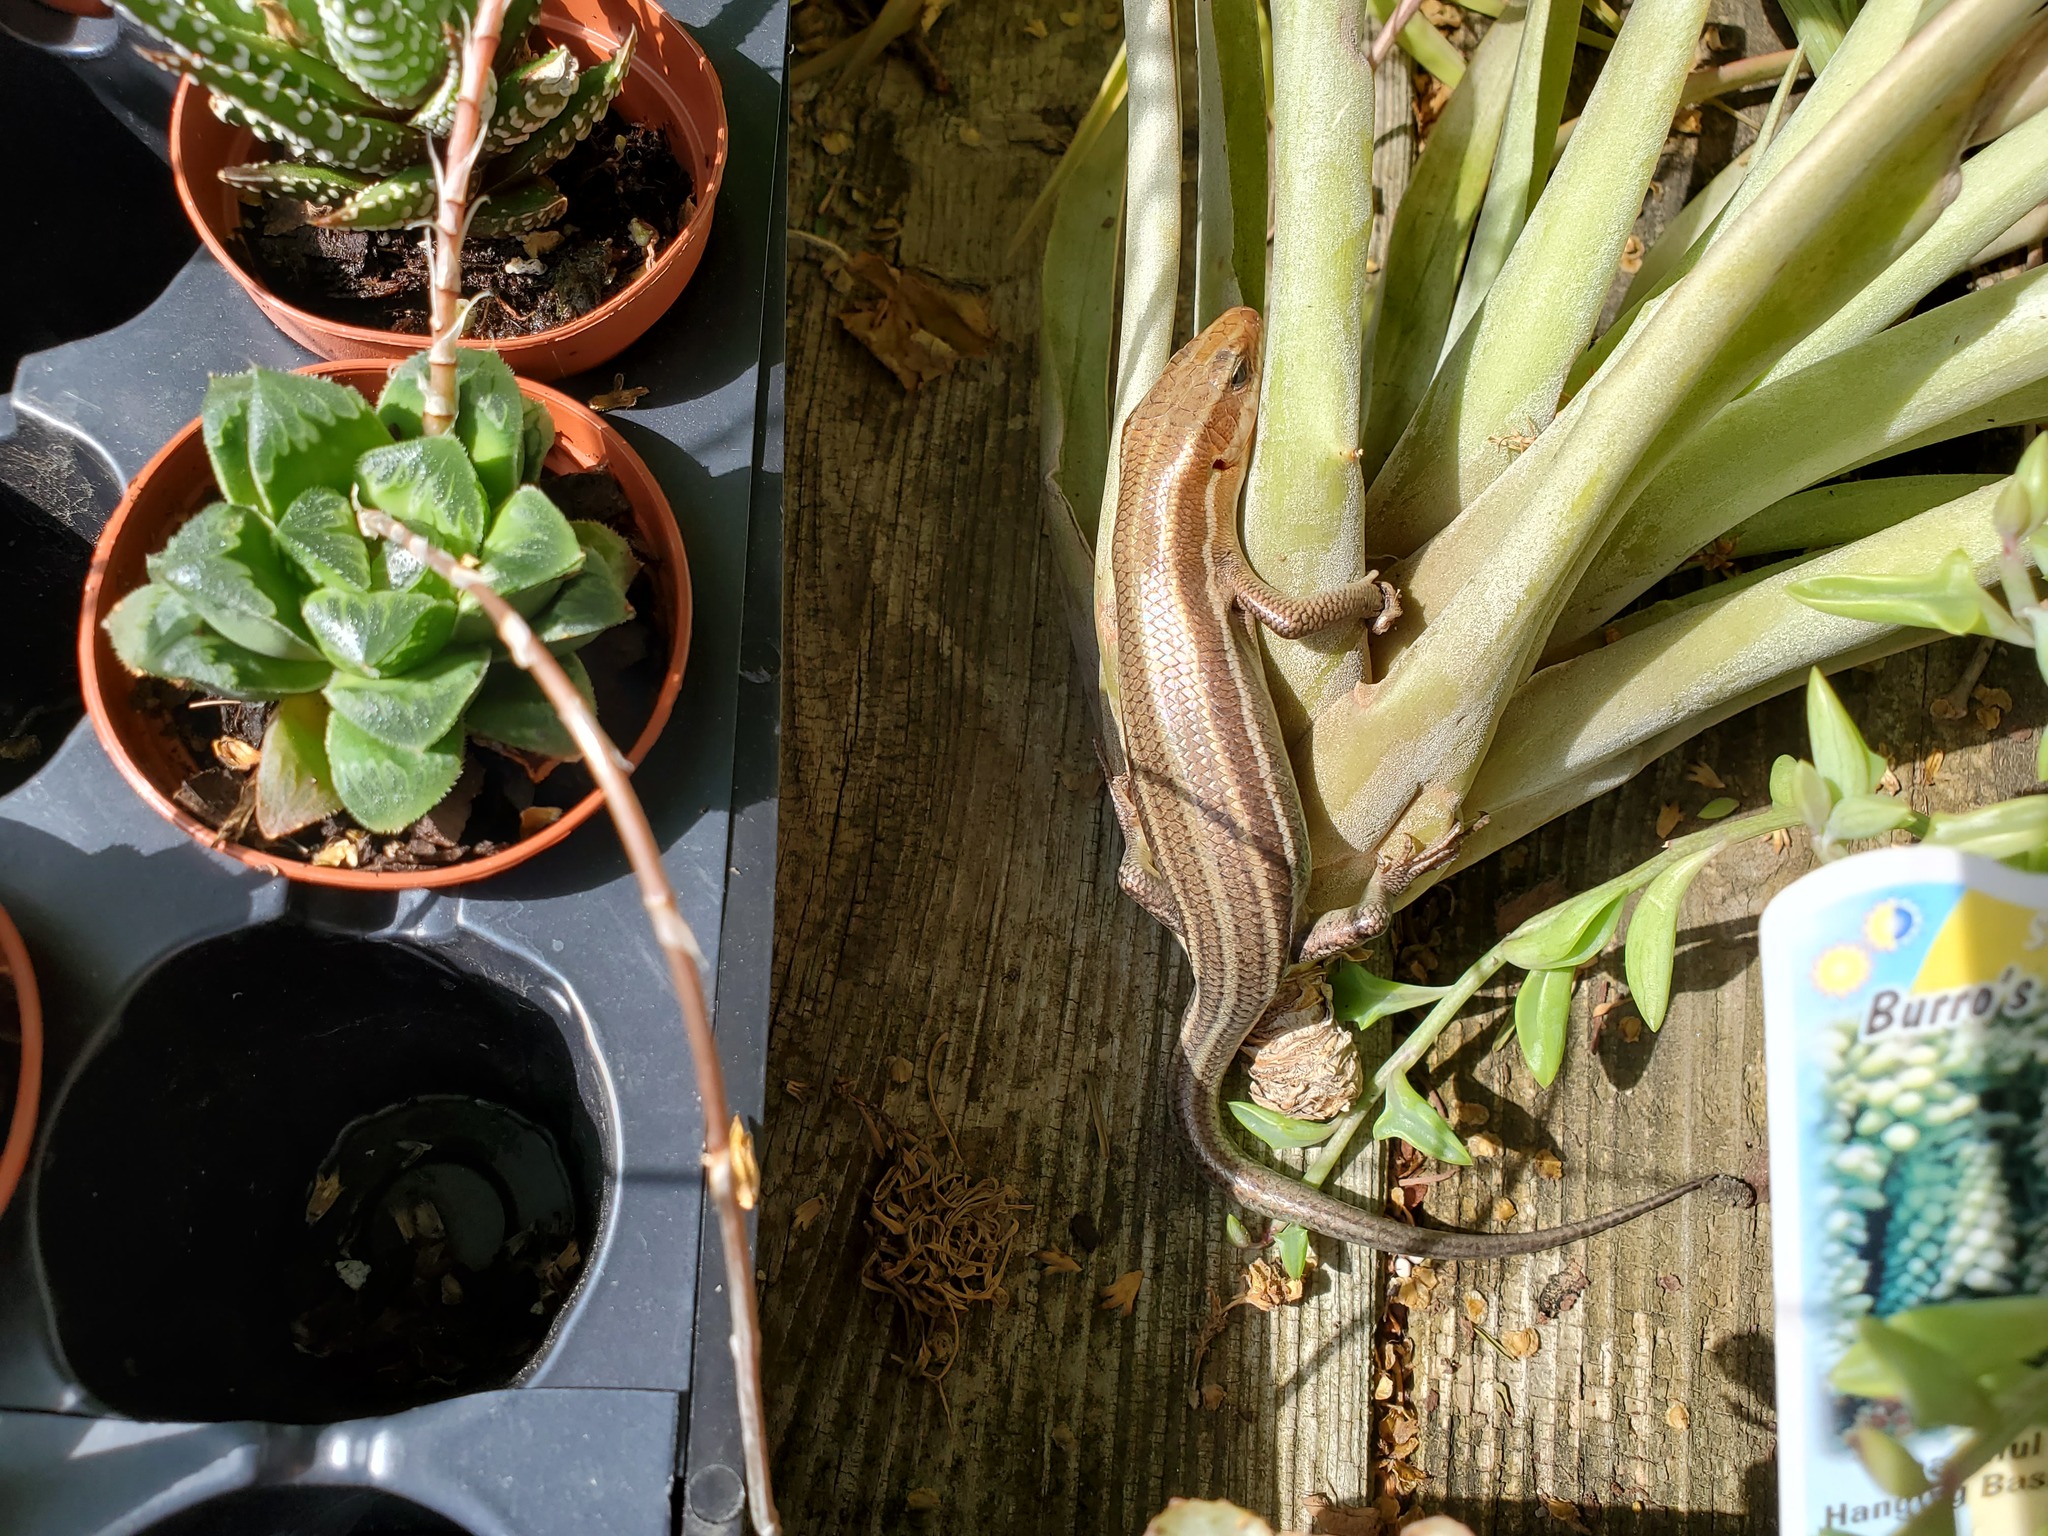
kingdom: Animalia
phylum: Chordata
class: Squamata
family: Scincidae
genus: Plestiodon
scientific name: Plestiodon fasciatus
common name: Five-lined skink
